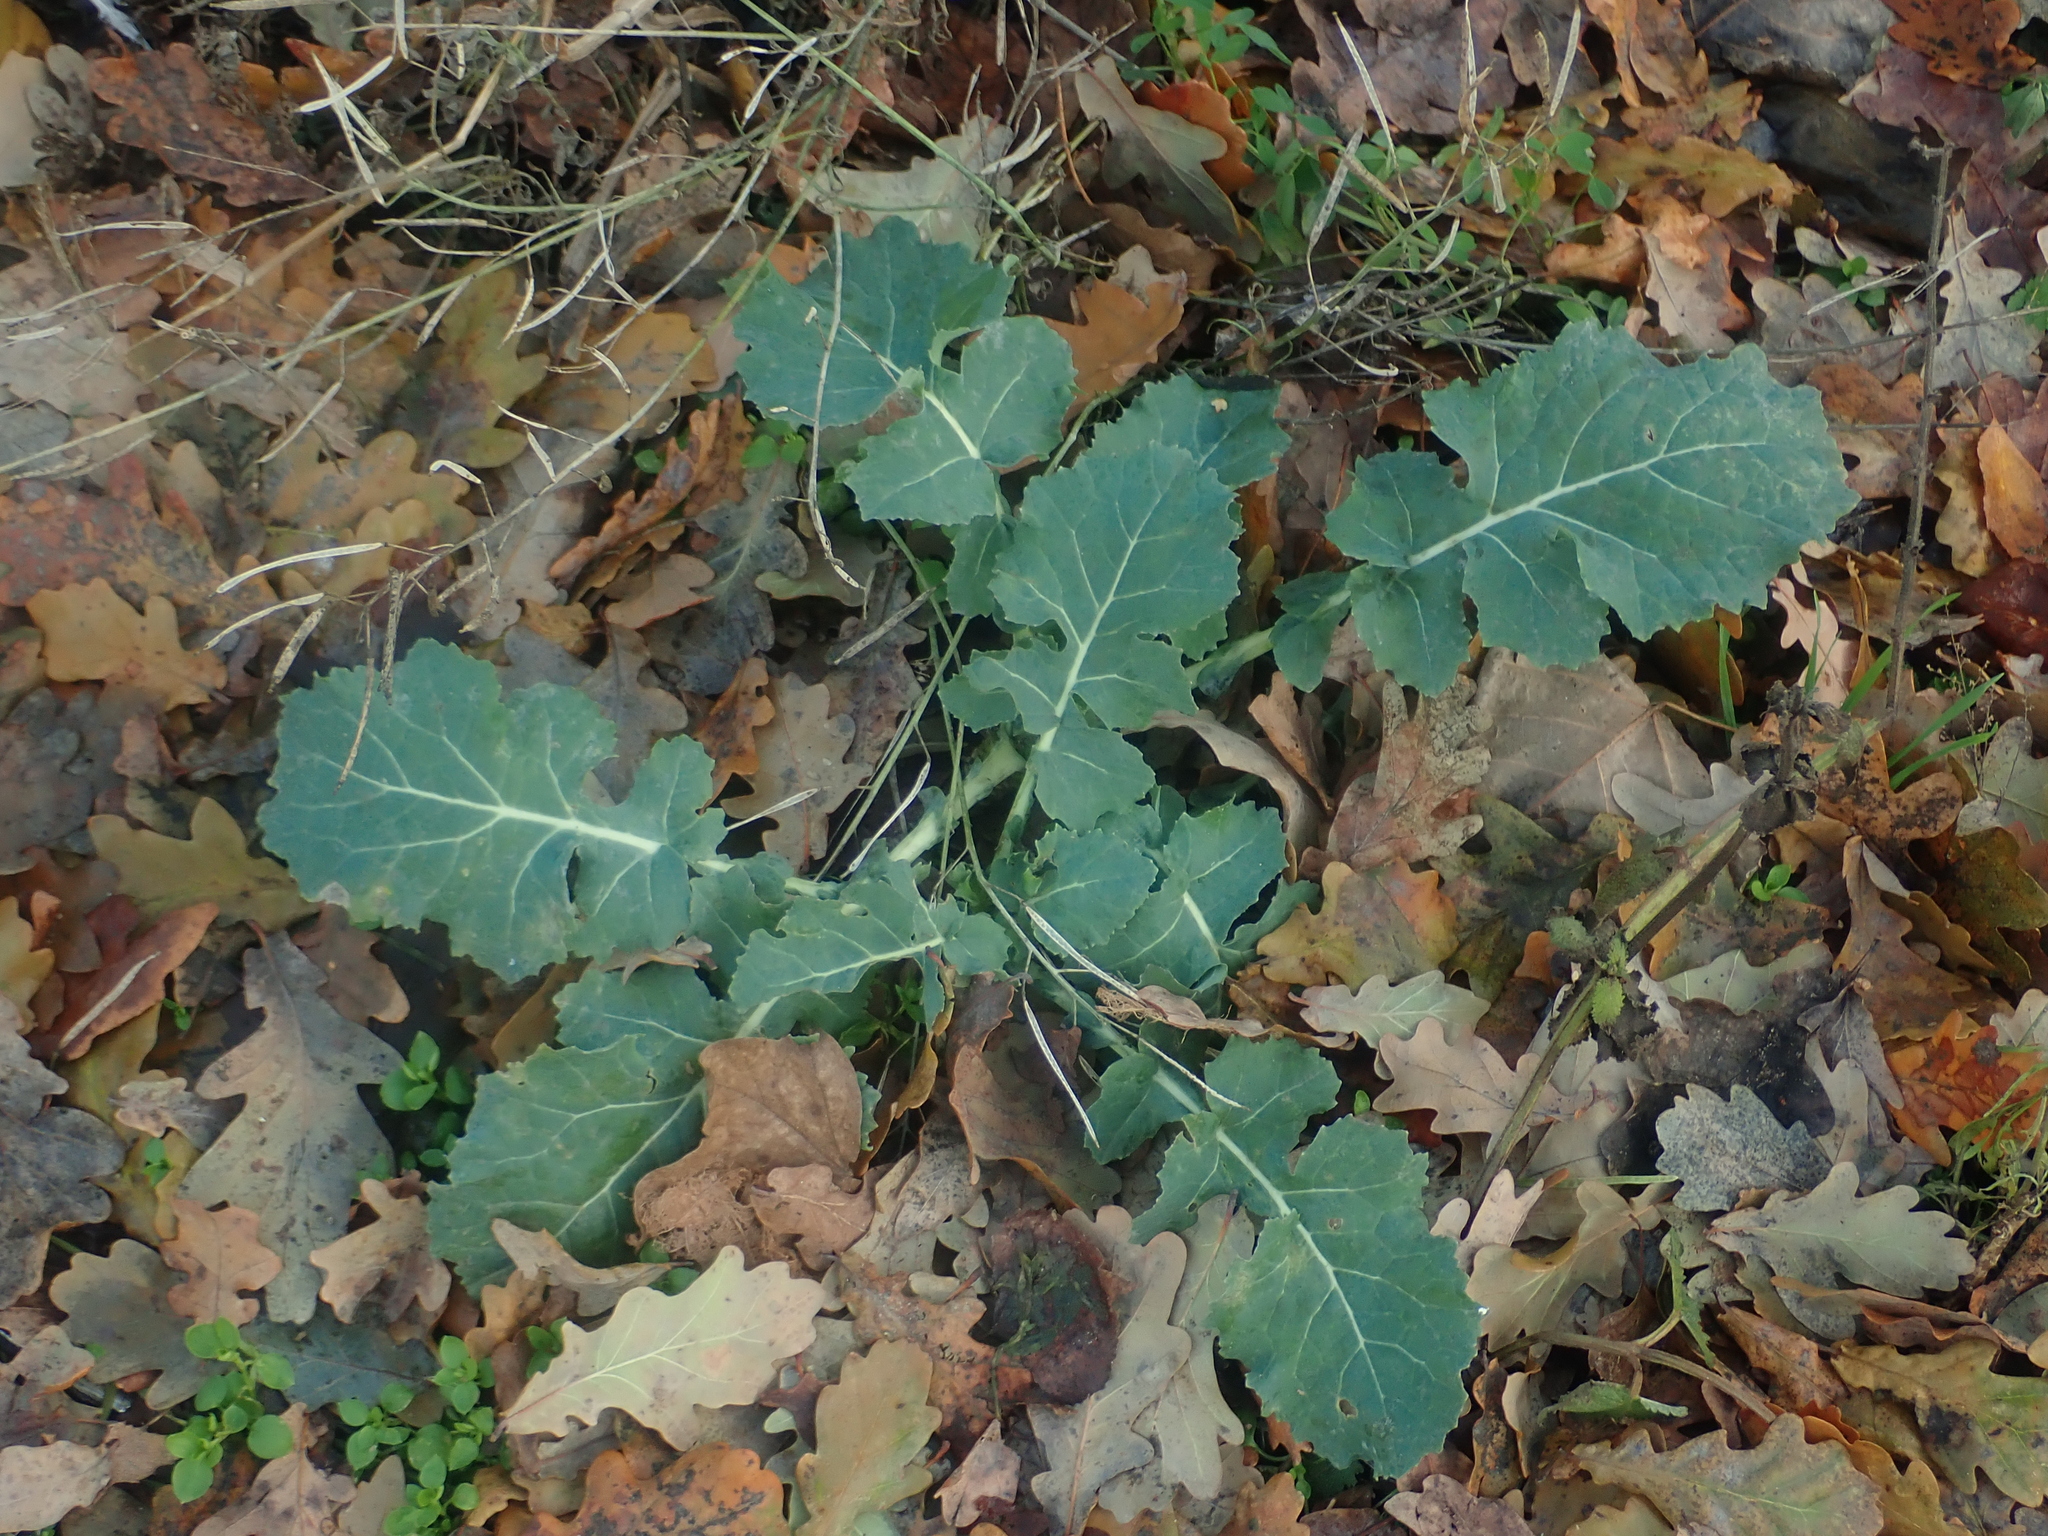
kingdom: Plantae
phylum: Tracheophyta
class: Magnoliopsida
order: Brassicales
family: Brassicaceae
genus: Brassica
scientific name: Brassica napus
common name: Rape
